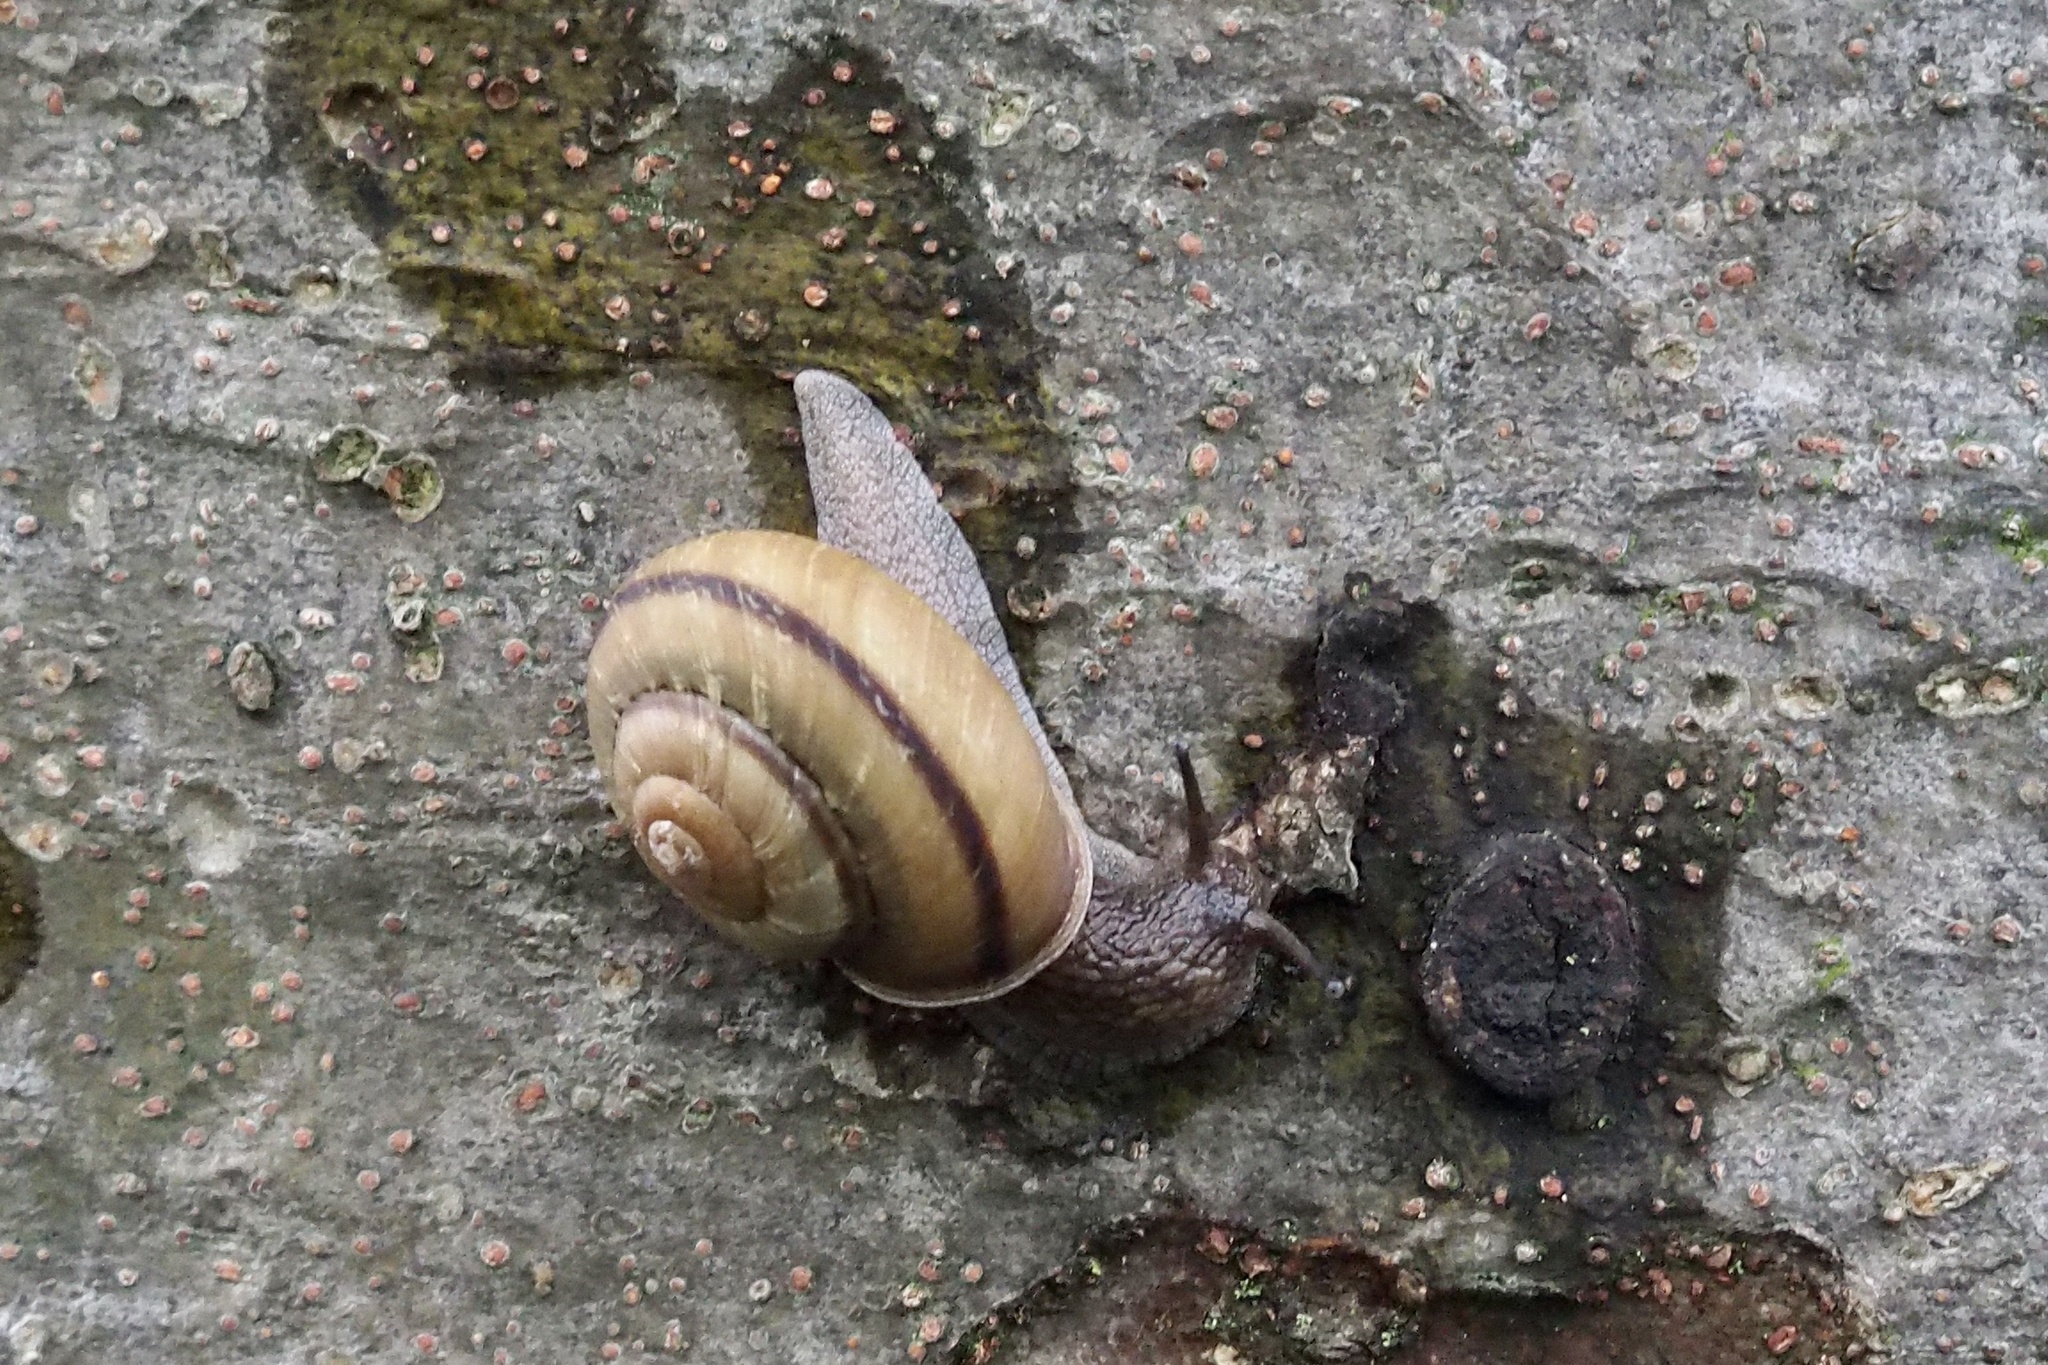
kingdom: Animalia
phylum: Mollusca
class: Gastropoda
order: Stylommatophora
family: Camaenidae
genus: Euhadra
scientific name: Euhadra eoa
